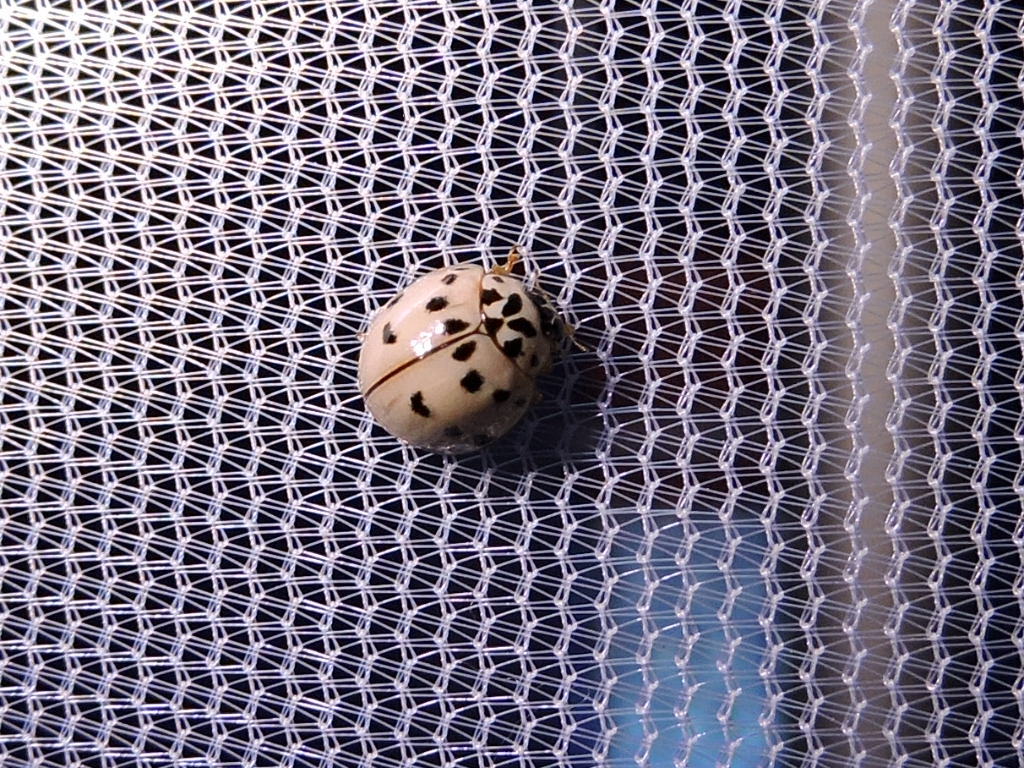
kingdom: Animalia
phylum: Arthropoda
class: Insecta
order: Coleoptera
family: Coccinellidae
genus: Olla
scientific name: Olla v-nigrum
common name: Ashy gray lady beetle
